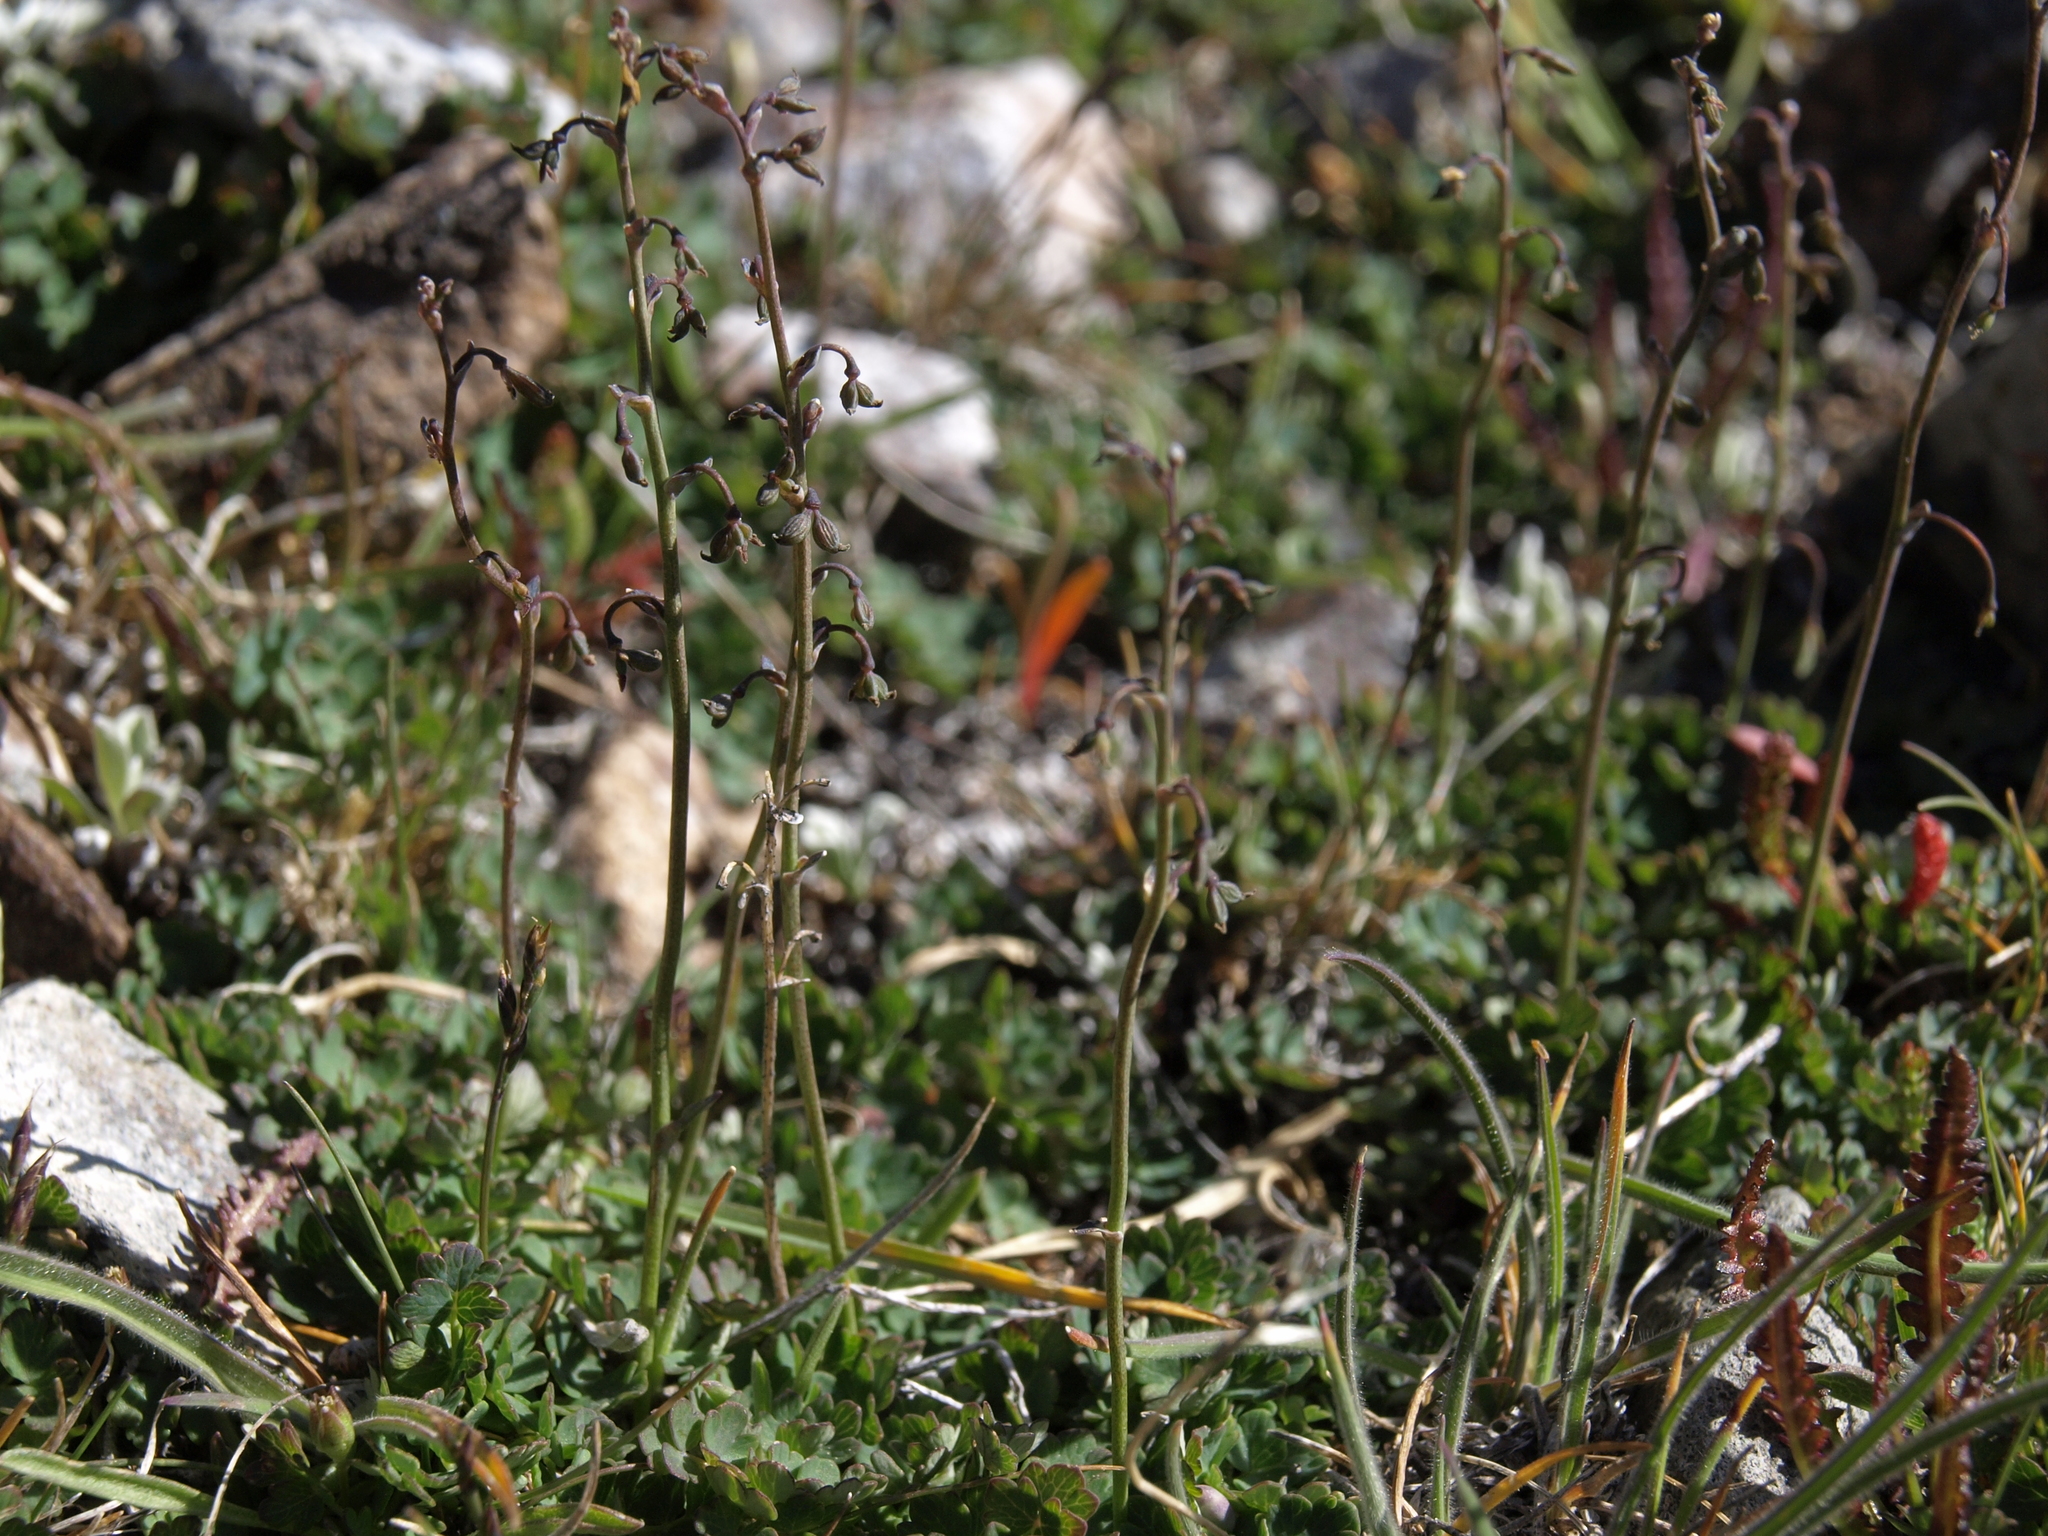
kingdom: Plantae
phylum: Tracheophyta
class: Magnoliopsida
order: Ranunculales
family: Ranunculaceae
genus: Thalictrum
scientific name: Thalictrum alpinum
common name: Alpine meadow-rue
